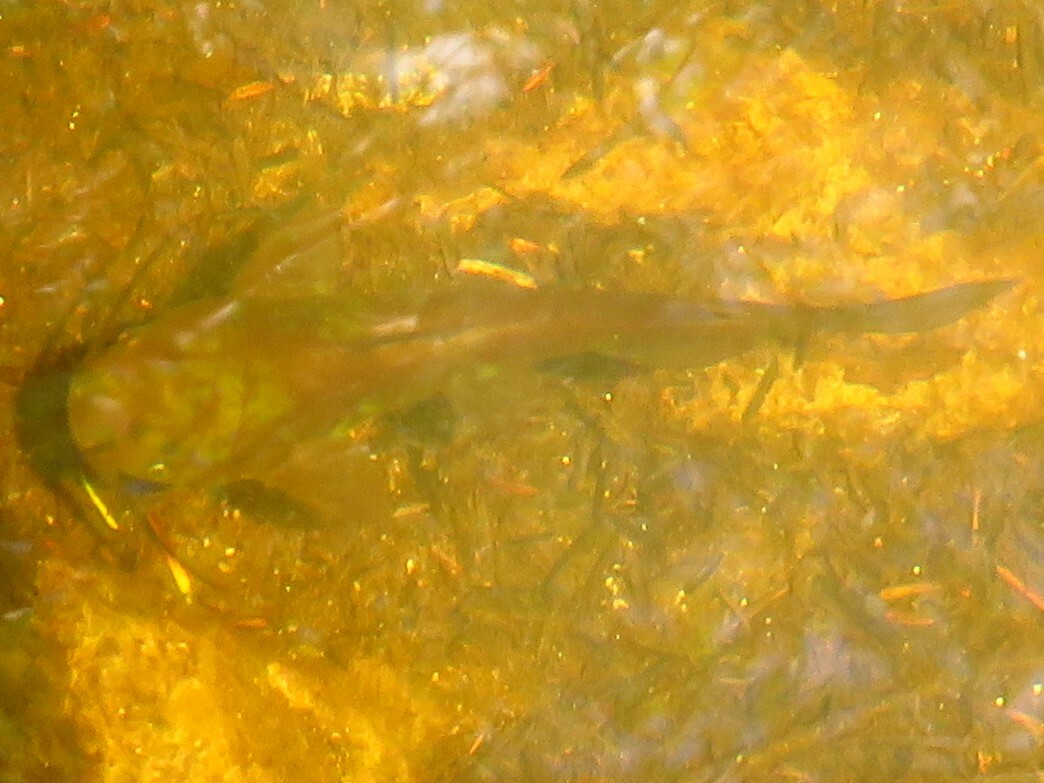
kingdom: Animalia
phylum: Chordata
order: Siluriformes
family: Ictaluridae
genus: Ameiurus
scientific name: Ameiurus nebulosus
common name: Brown bullhead
